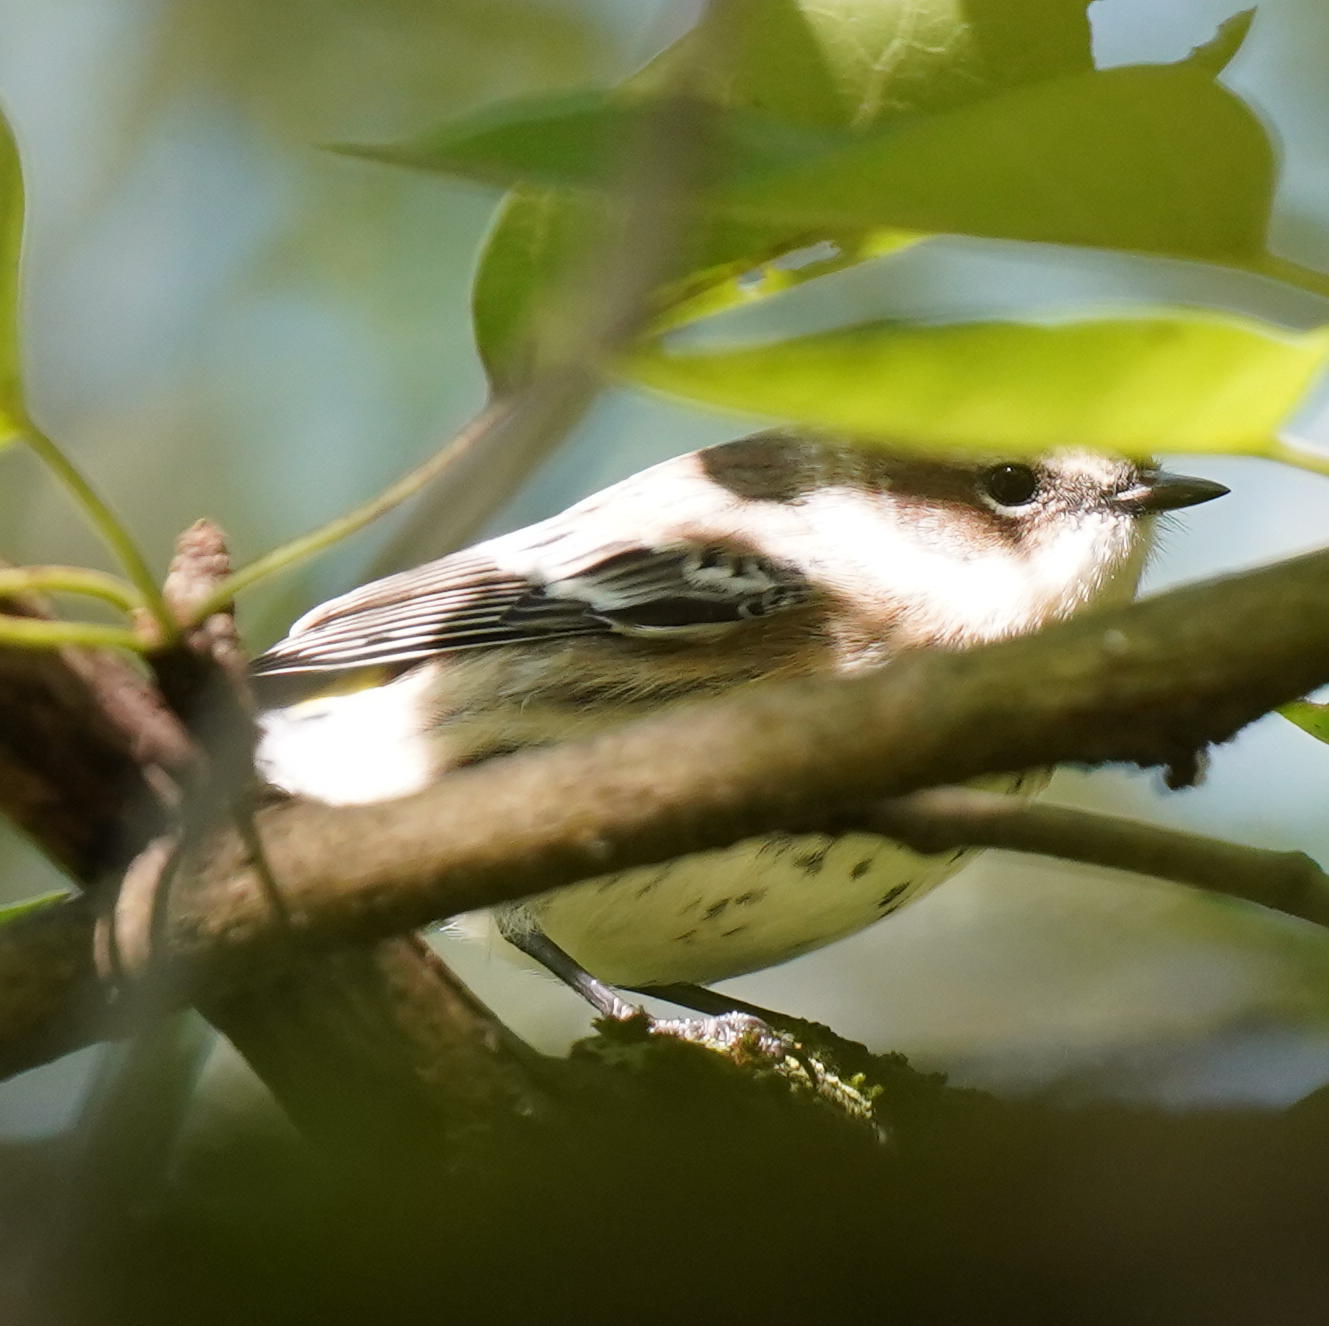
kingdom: Animalia
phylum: Chordata
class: Aves
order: Passeriformes
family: Parulidae
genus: Setophaga
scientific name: Setophaga coronata
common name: Myrtle warbler
